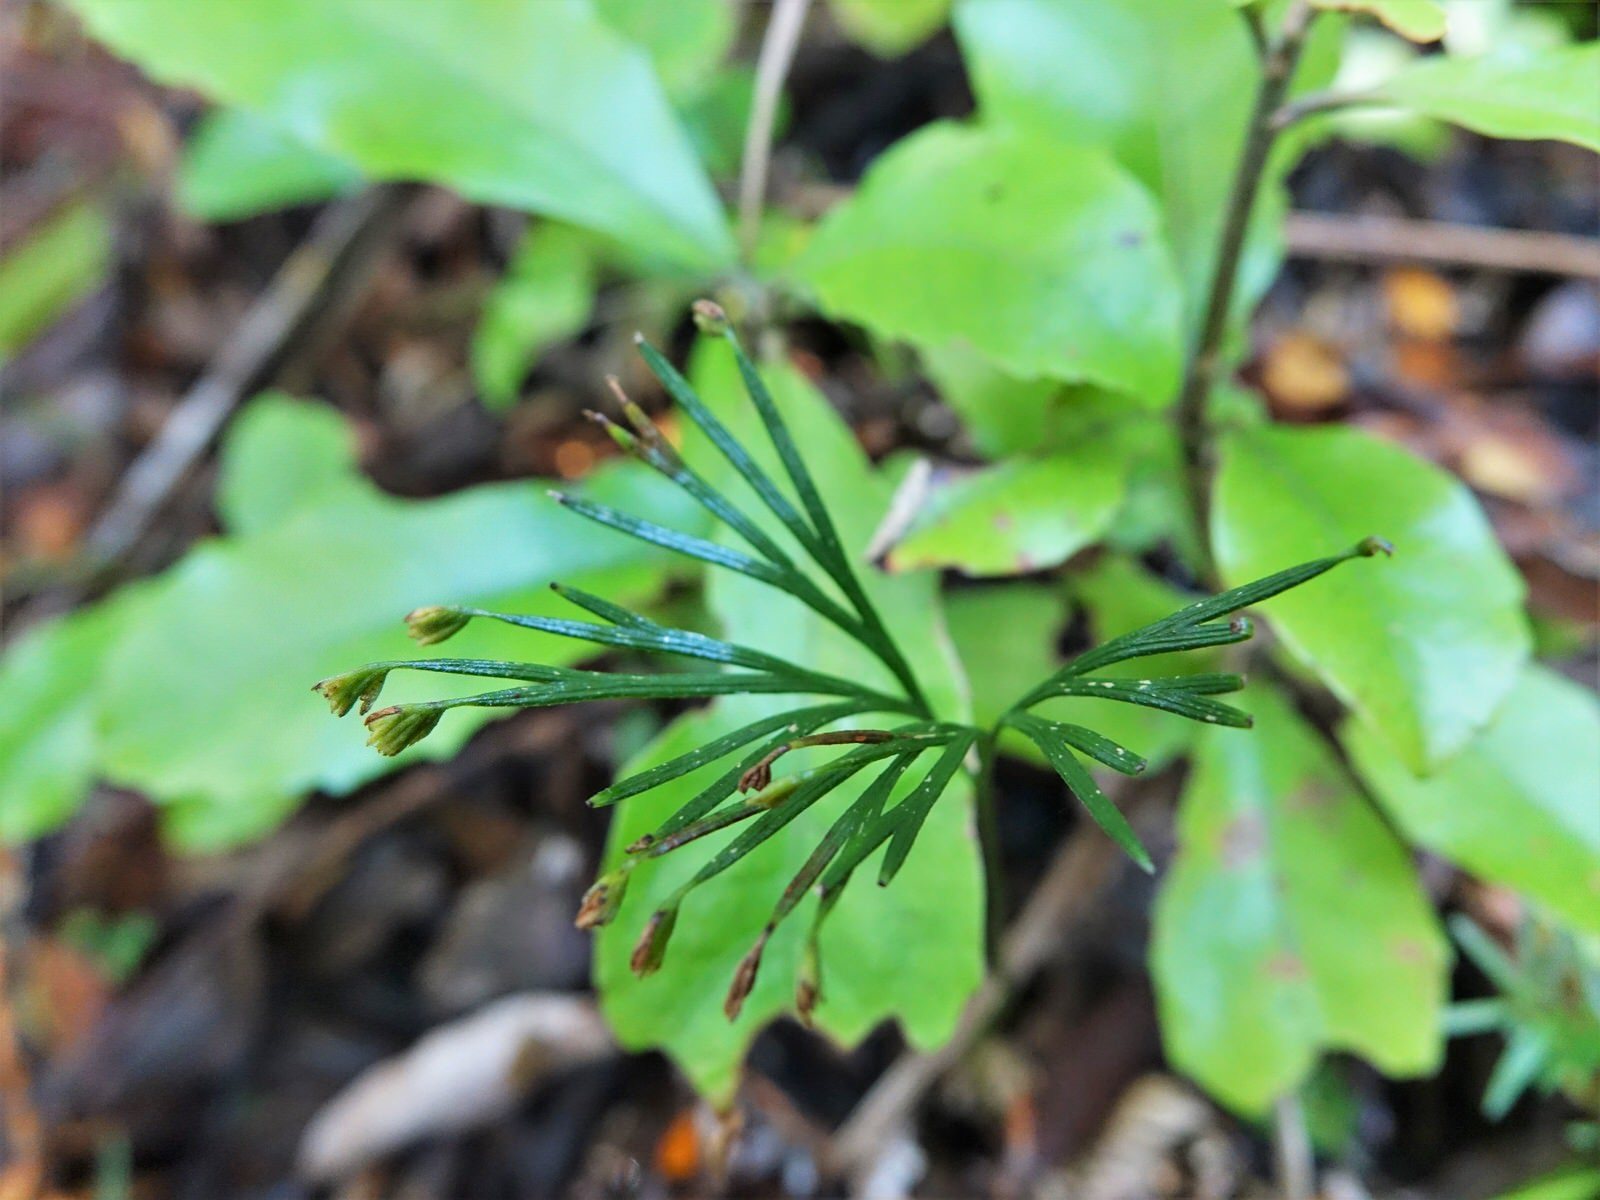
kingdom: Plantae
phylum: Tracheophyta
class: Polypodiopsida
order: Schizaeales
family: Schizaeaceae
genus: Schizaea
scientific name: Schizaea dichotoma
